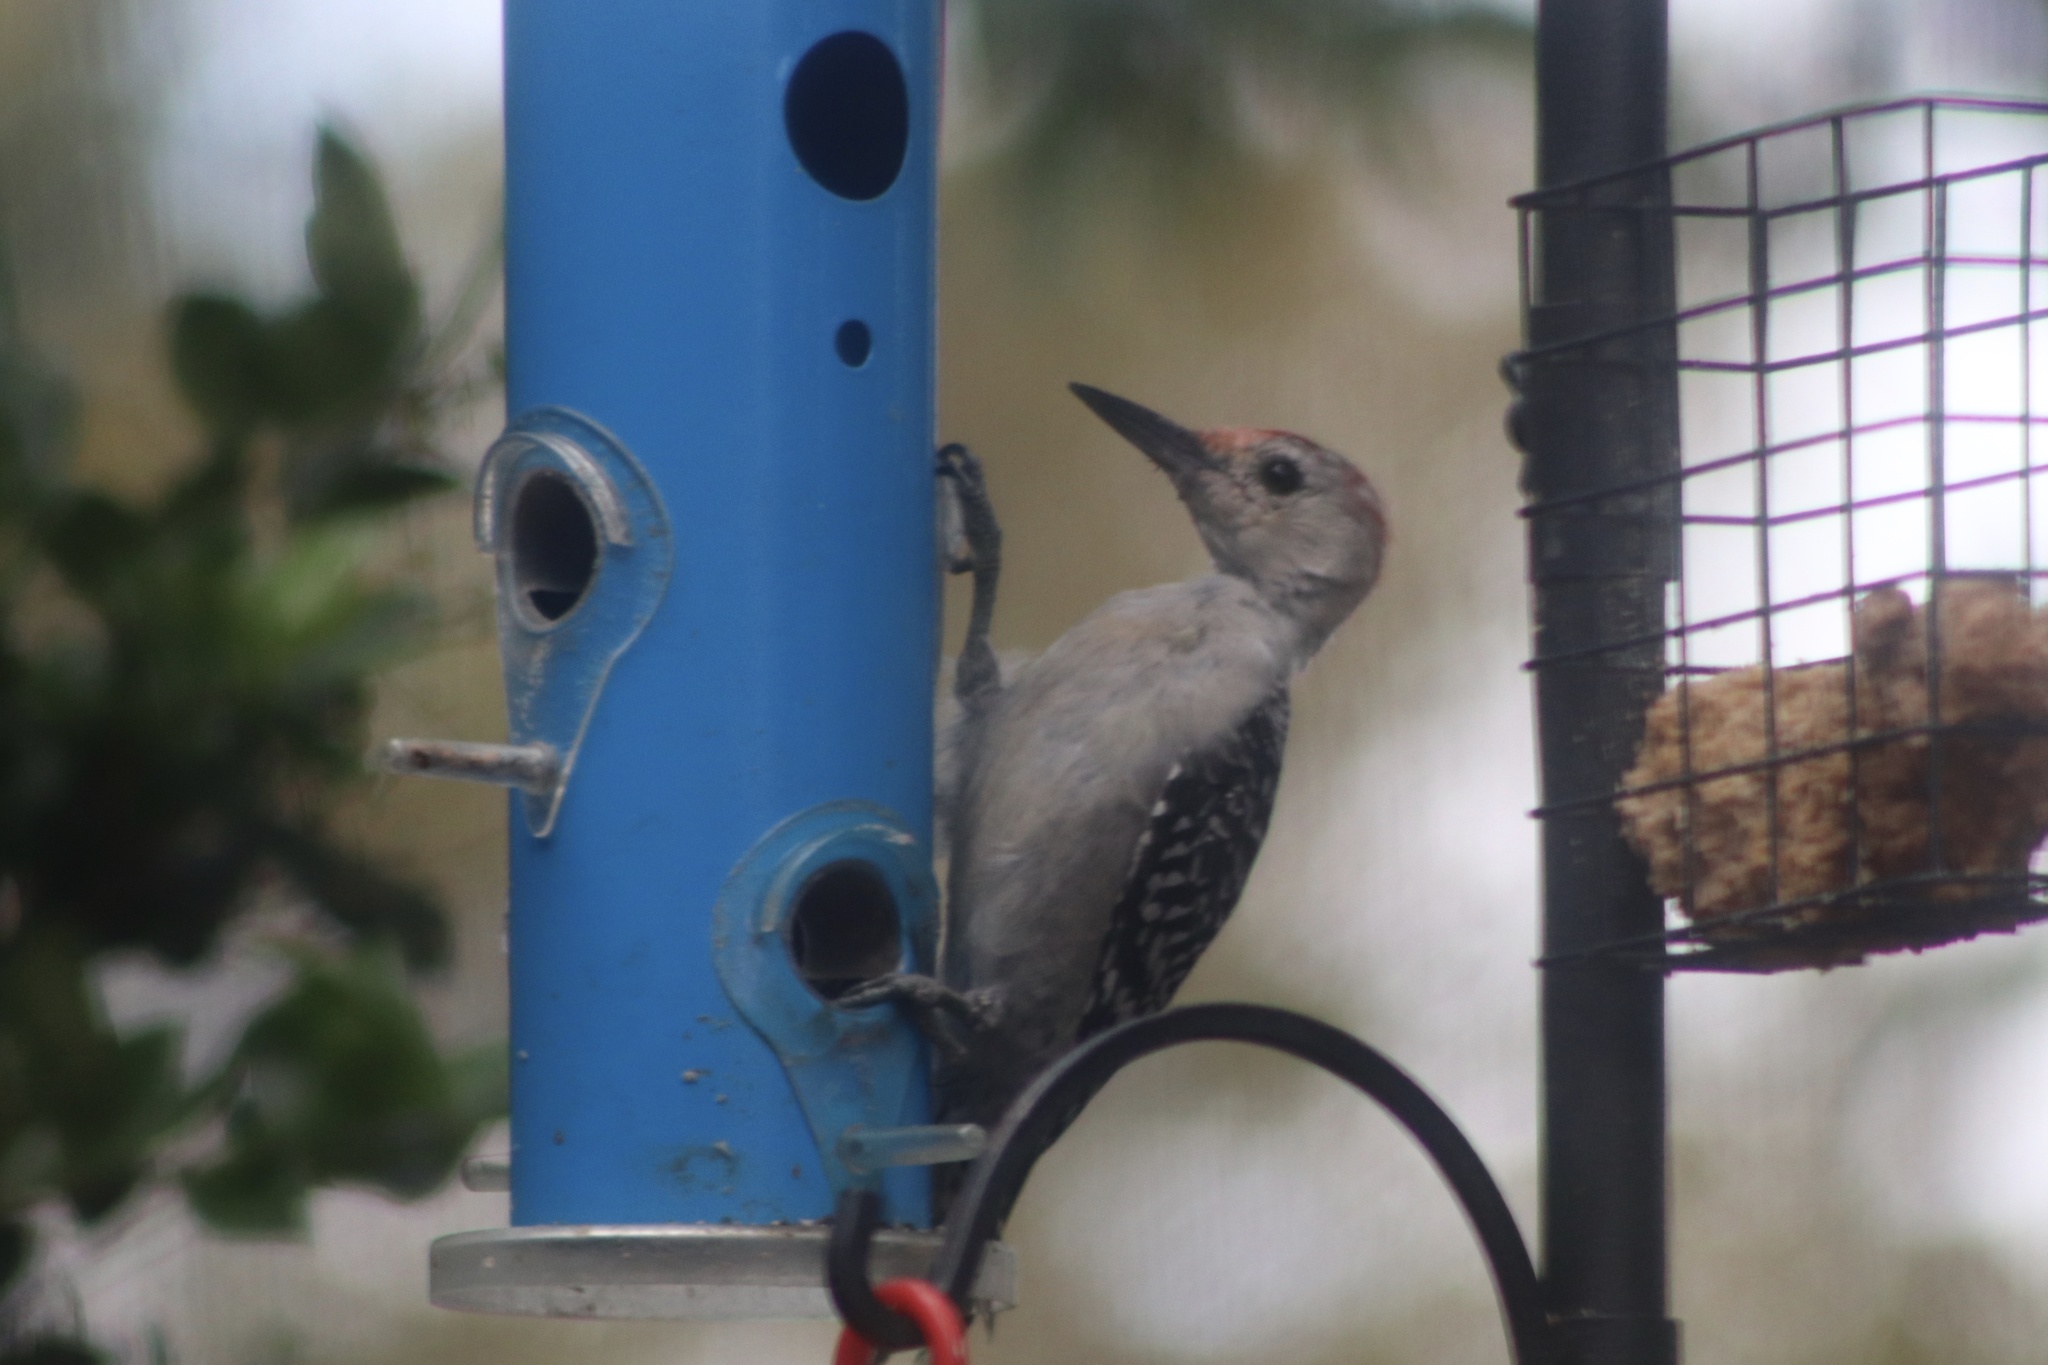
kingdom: Animalia
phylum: Chordata
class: Aves
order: Piciformes
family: Picidae
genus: Melanerpes
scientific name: Melanerpes carolinus
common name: Red-bellied woodpecker
